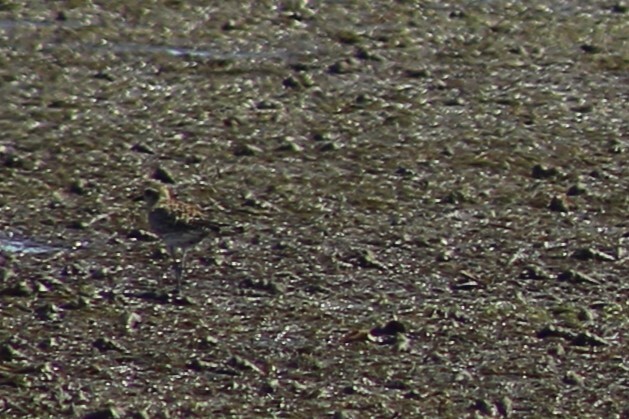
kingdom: Animalia
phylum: Chordata
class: Aves
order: Charadriiformes
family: Charadriidae
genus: Pluvialis
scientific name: Pluvialis fulva
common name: Pacific golden plover
